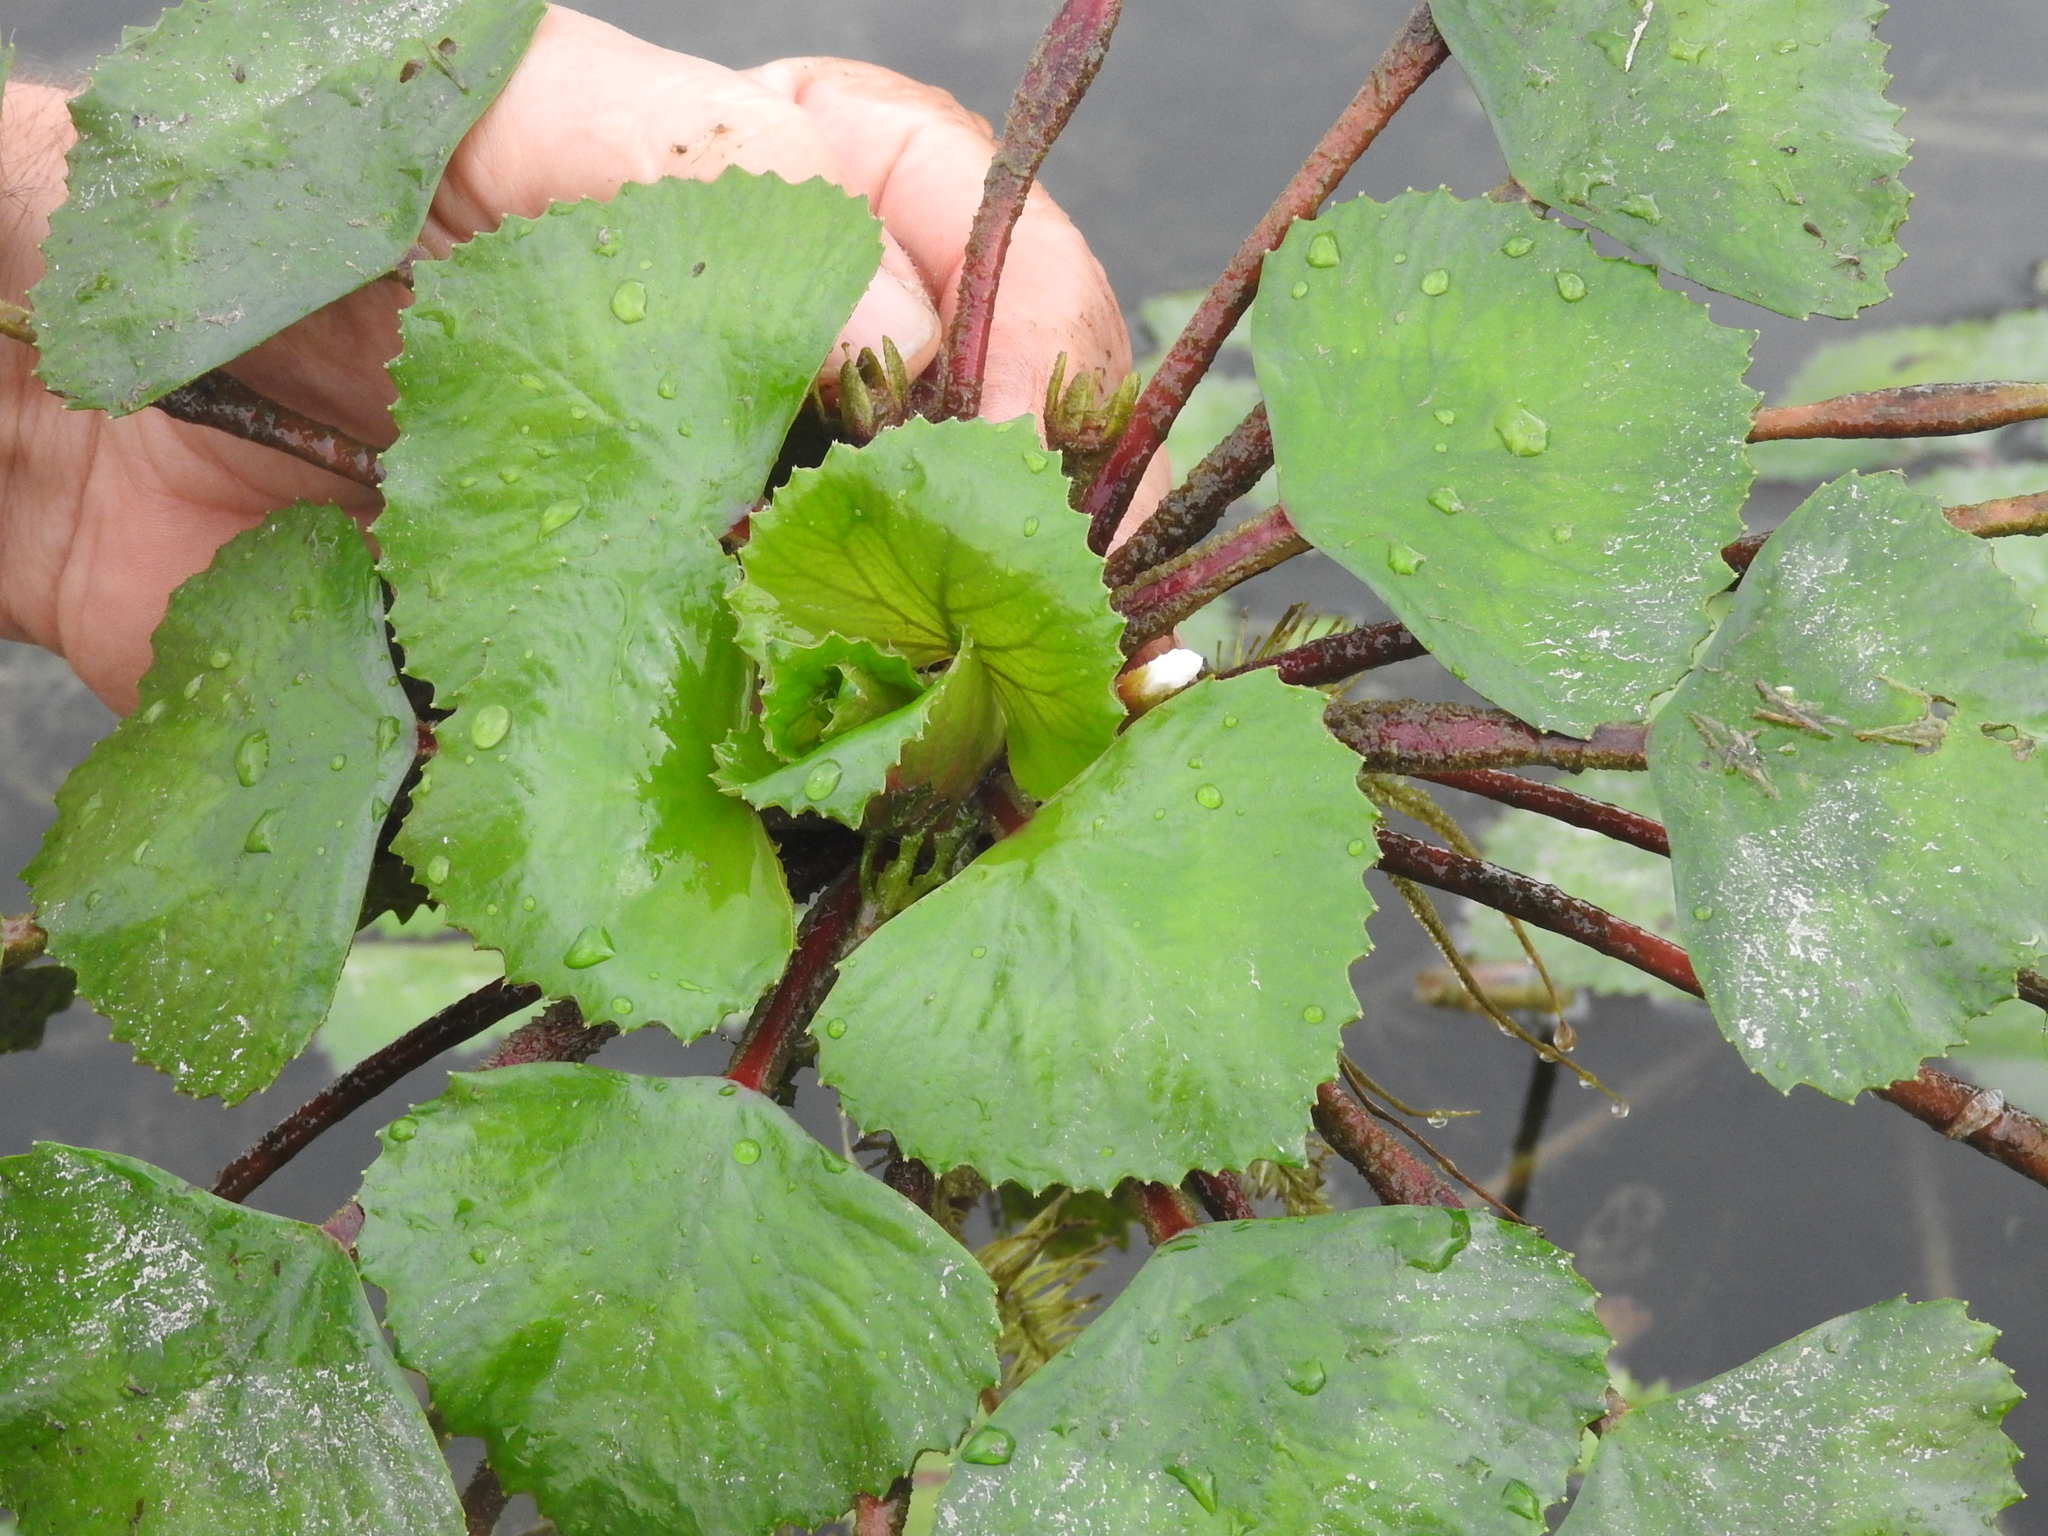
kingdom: Plantae
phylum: Tracheophyta
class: Magnoliopsida
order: Myrtales
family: Lythraceae
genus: Trapa
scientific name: Trapa natans
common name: Water chestnut
